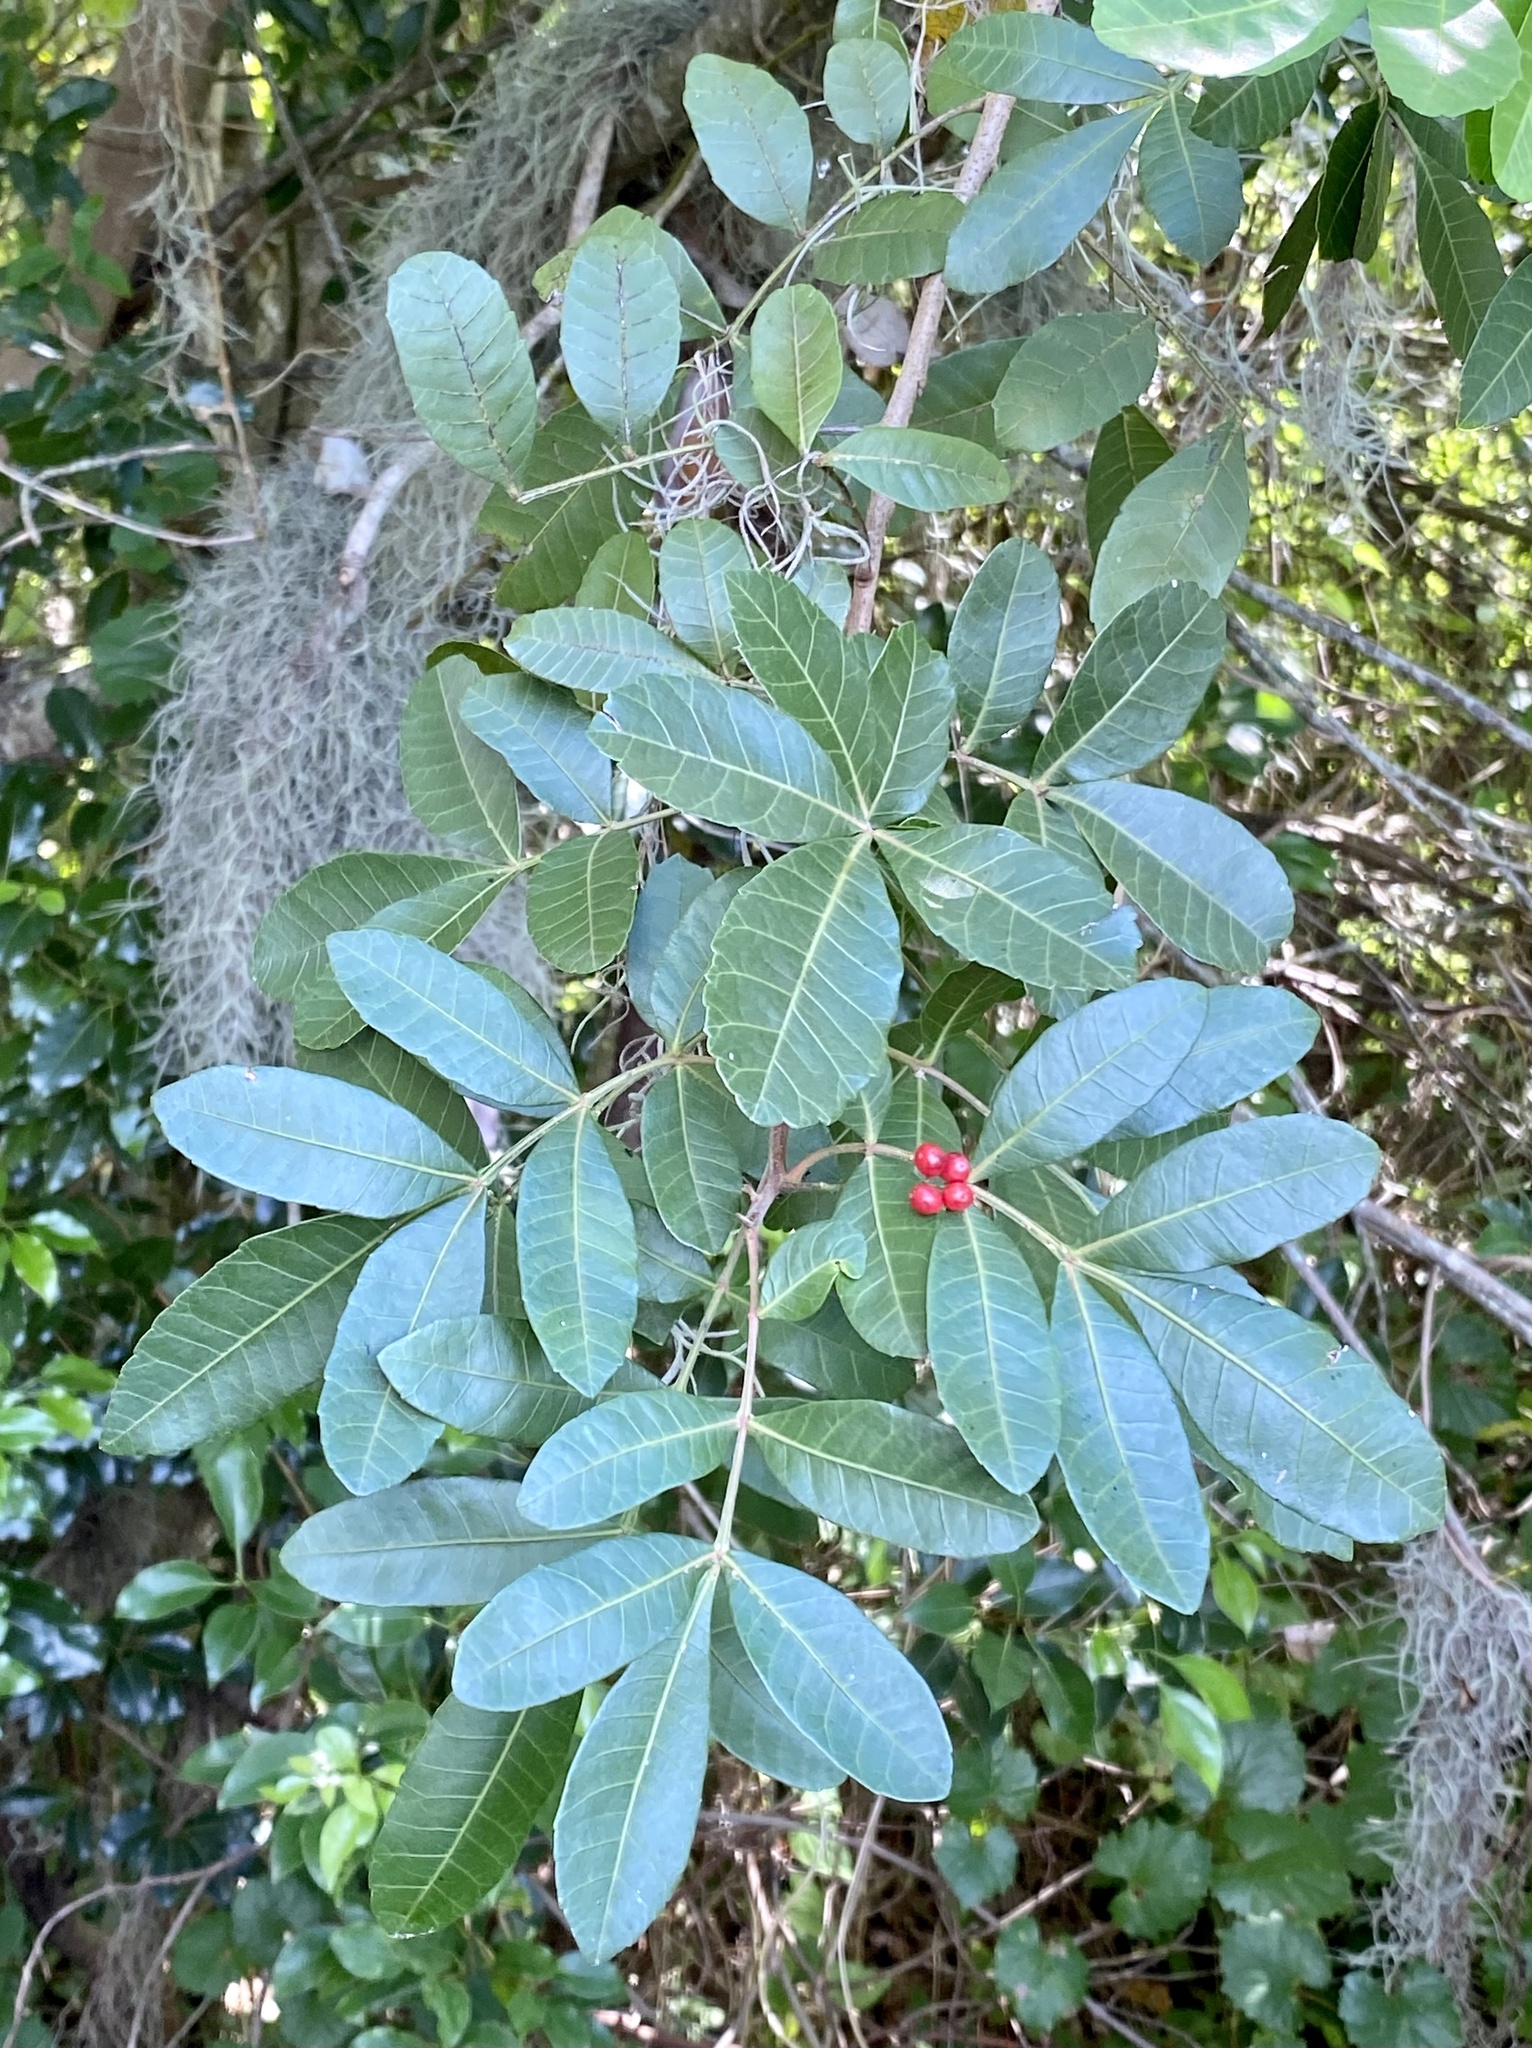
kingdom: Plantae
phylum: Tracheophyta
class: Magnoliopsida
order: Sapindales
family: Anacardiaceae
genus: Schinus
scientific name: Schinus terebinthifolia
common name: Brazilian peppertree
